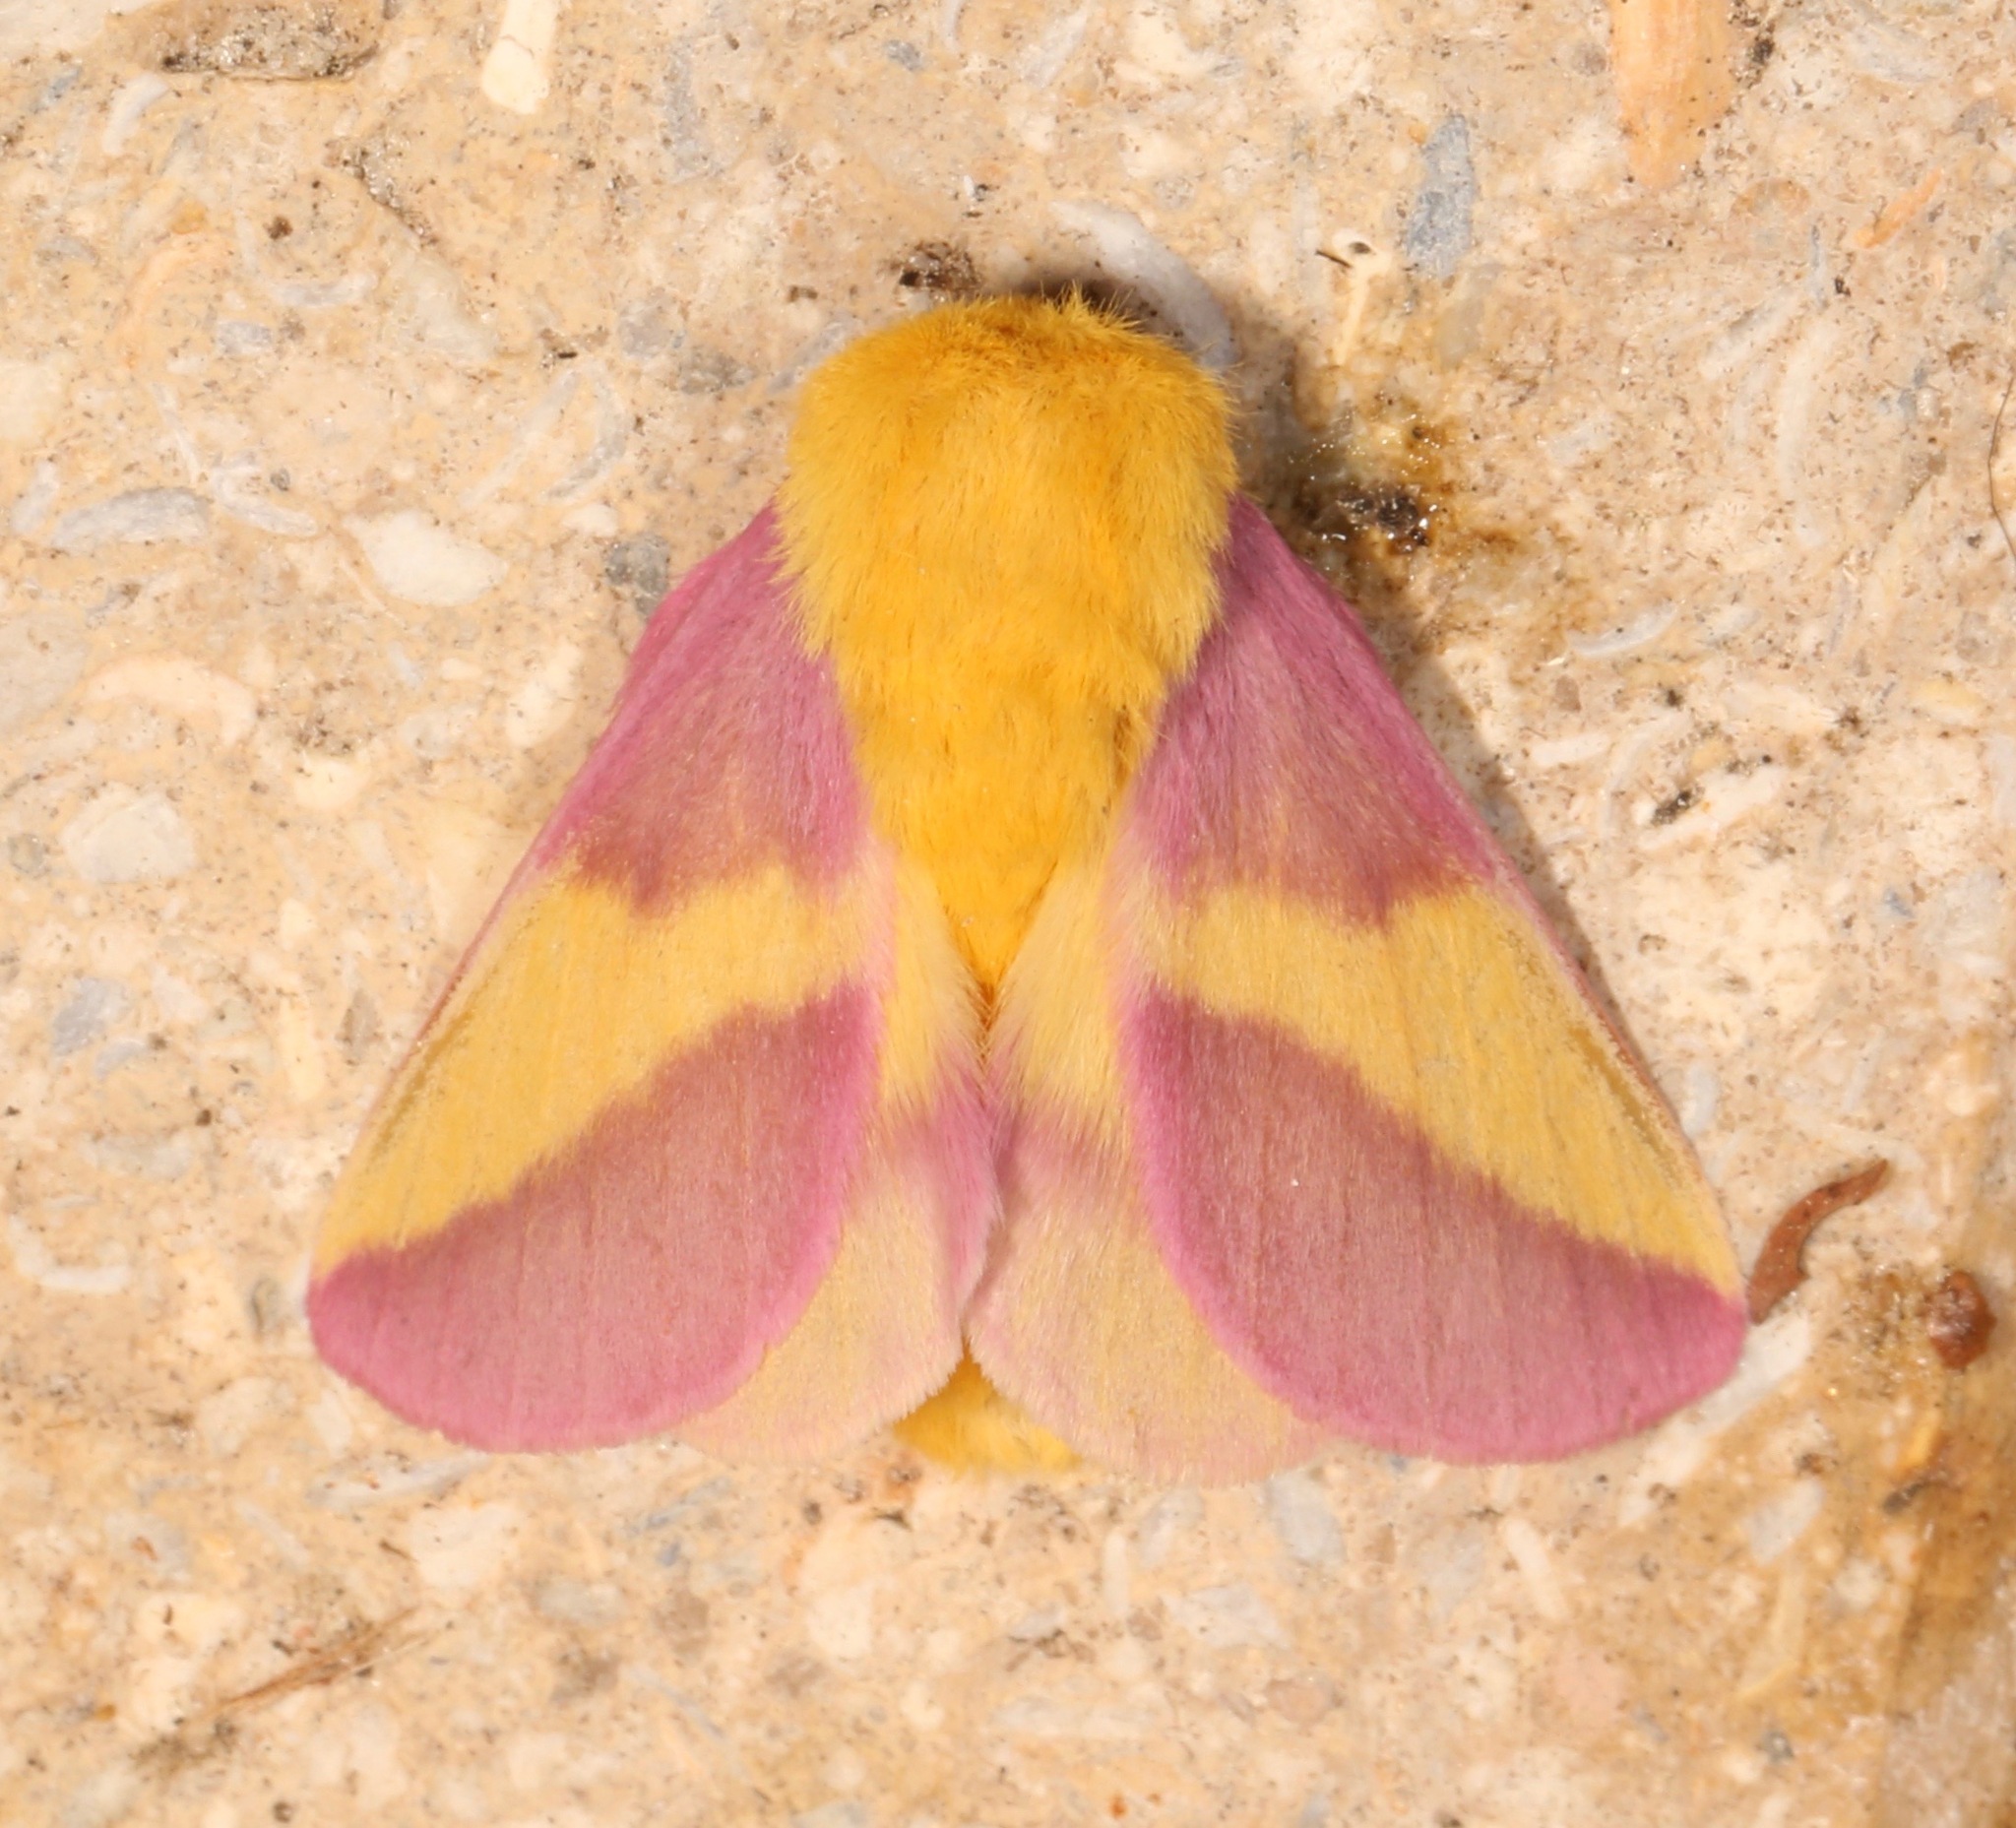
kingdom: Animalia
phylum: Arthropoda
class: Insecta
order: Lepidoptera
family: Saturniidae
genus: Dryocampa
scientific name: Dryocampa rubicunda
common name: Rosy maple moth
